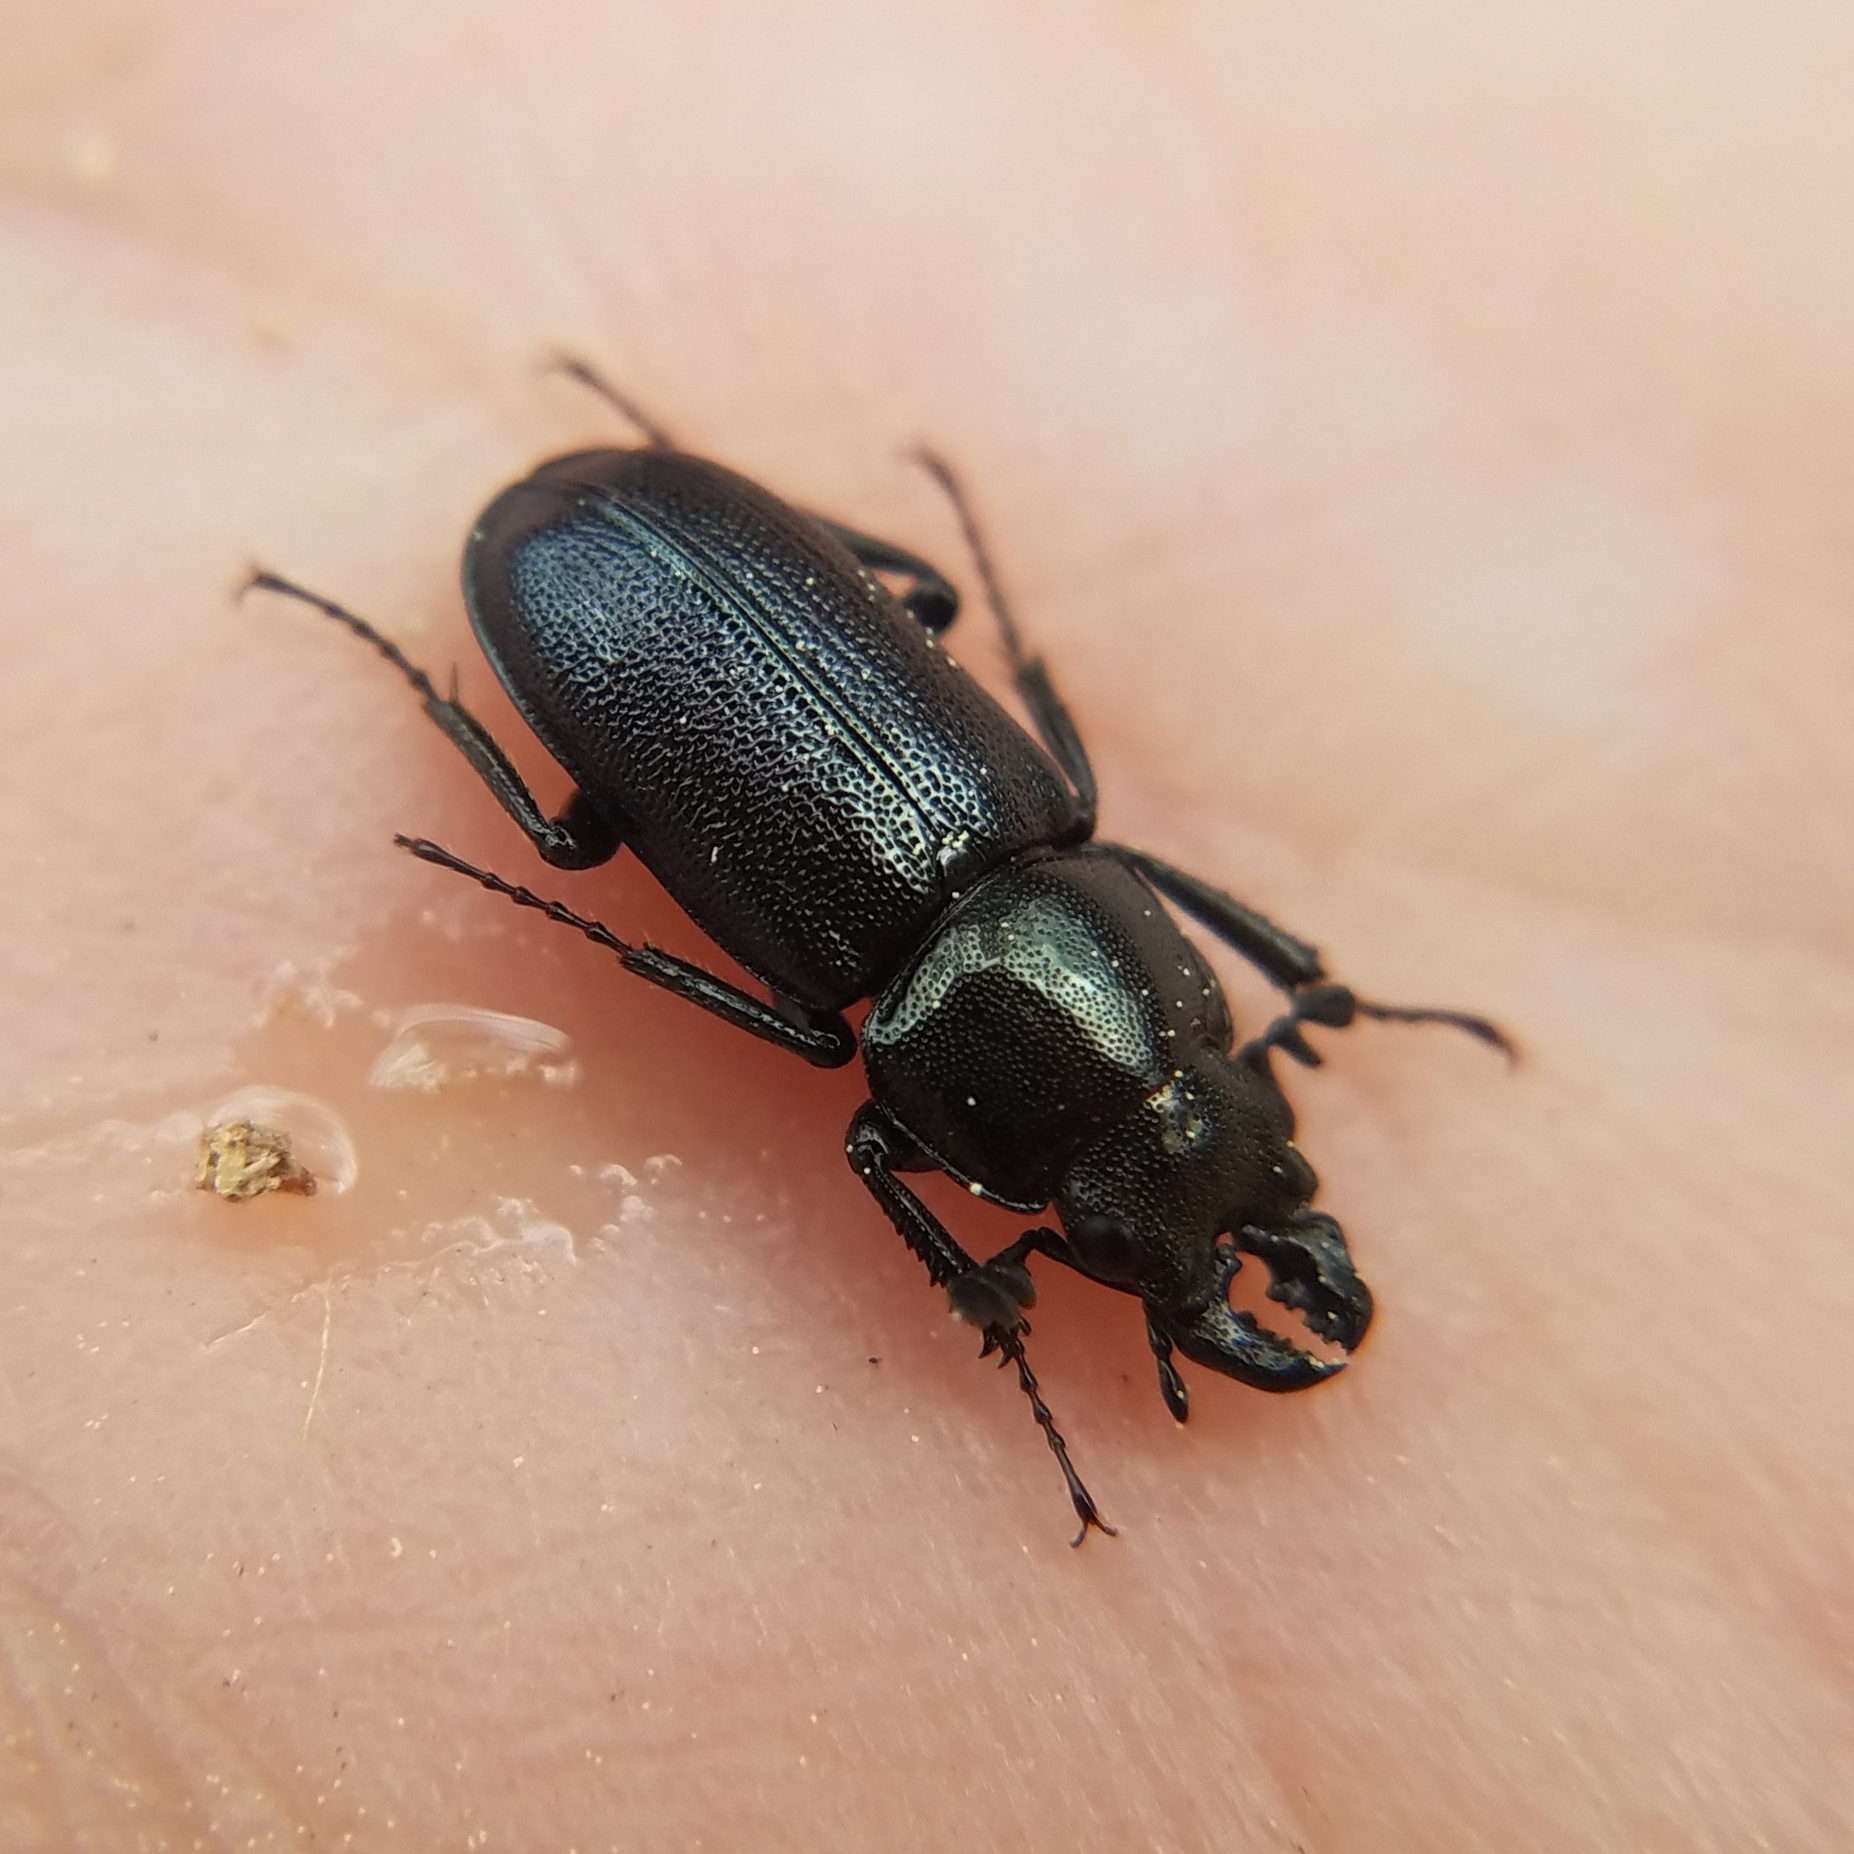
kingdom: Animalia
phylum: Arthropoda
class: Insecta
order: Coleoptera
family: Lucanidae
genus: Platycerus
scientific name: Platycerus quercus
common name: Oak stag beetle
